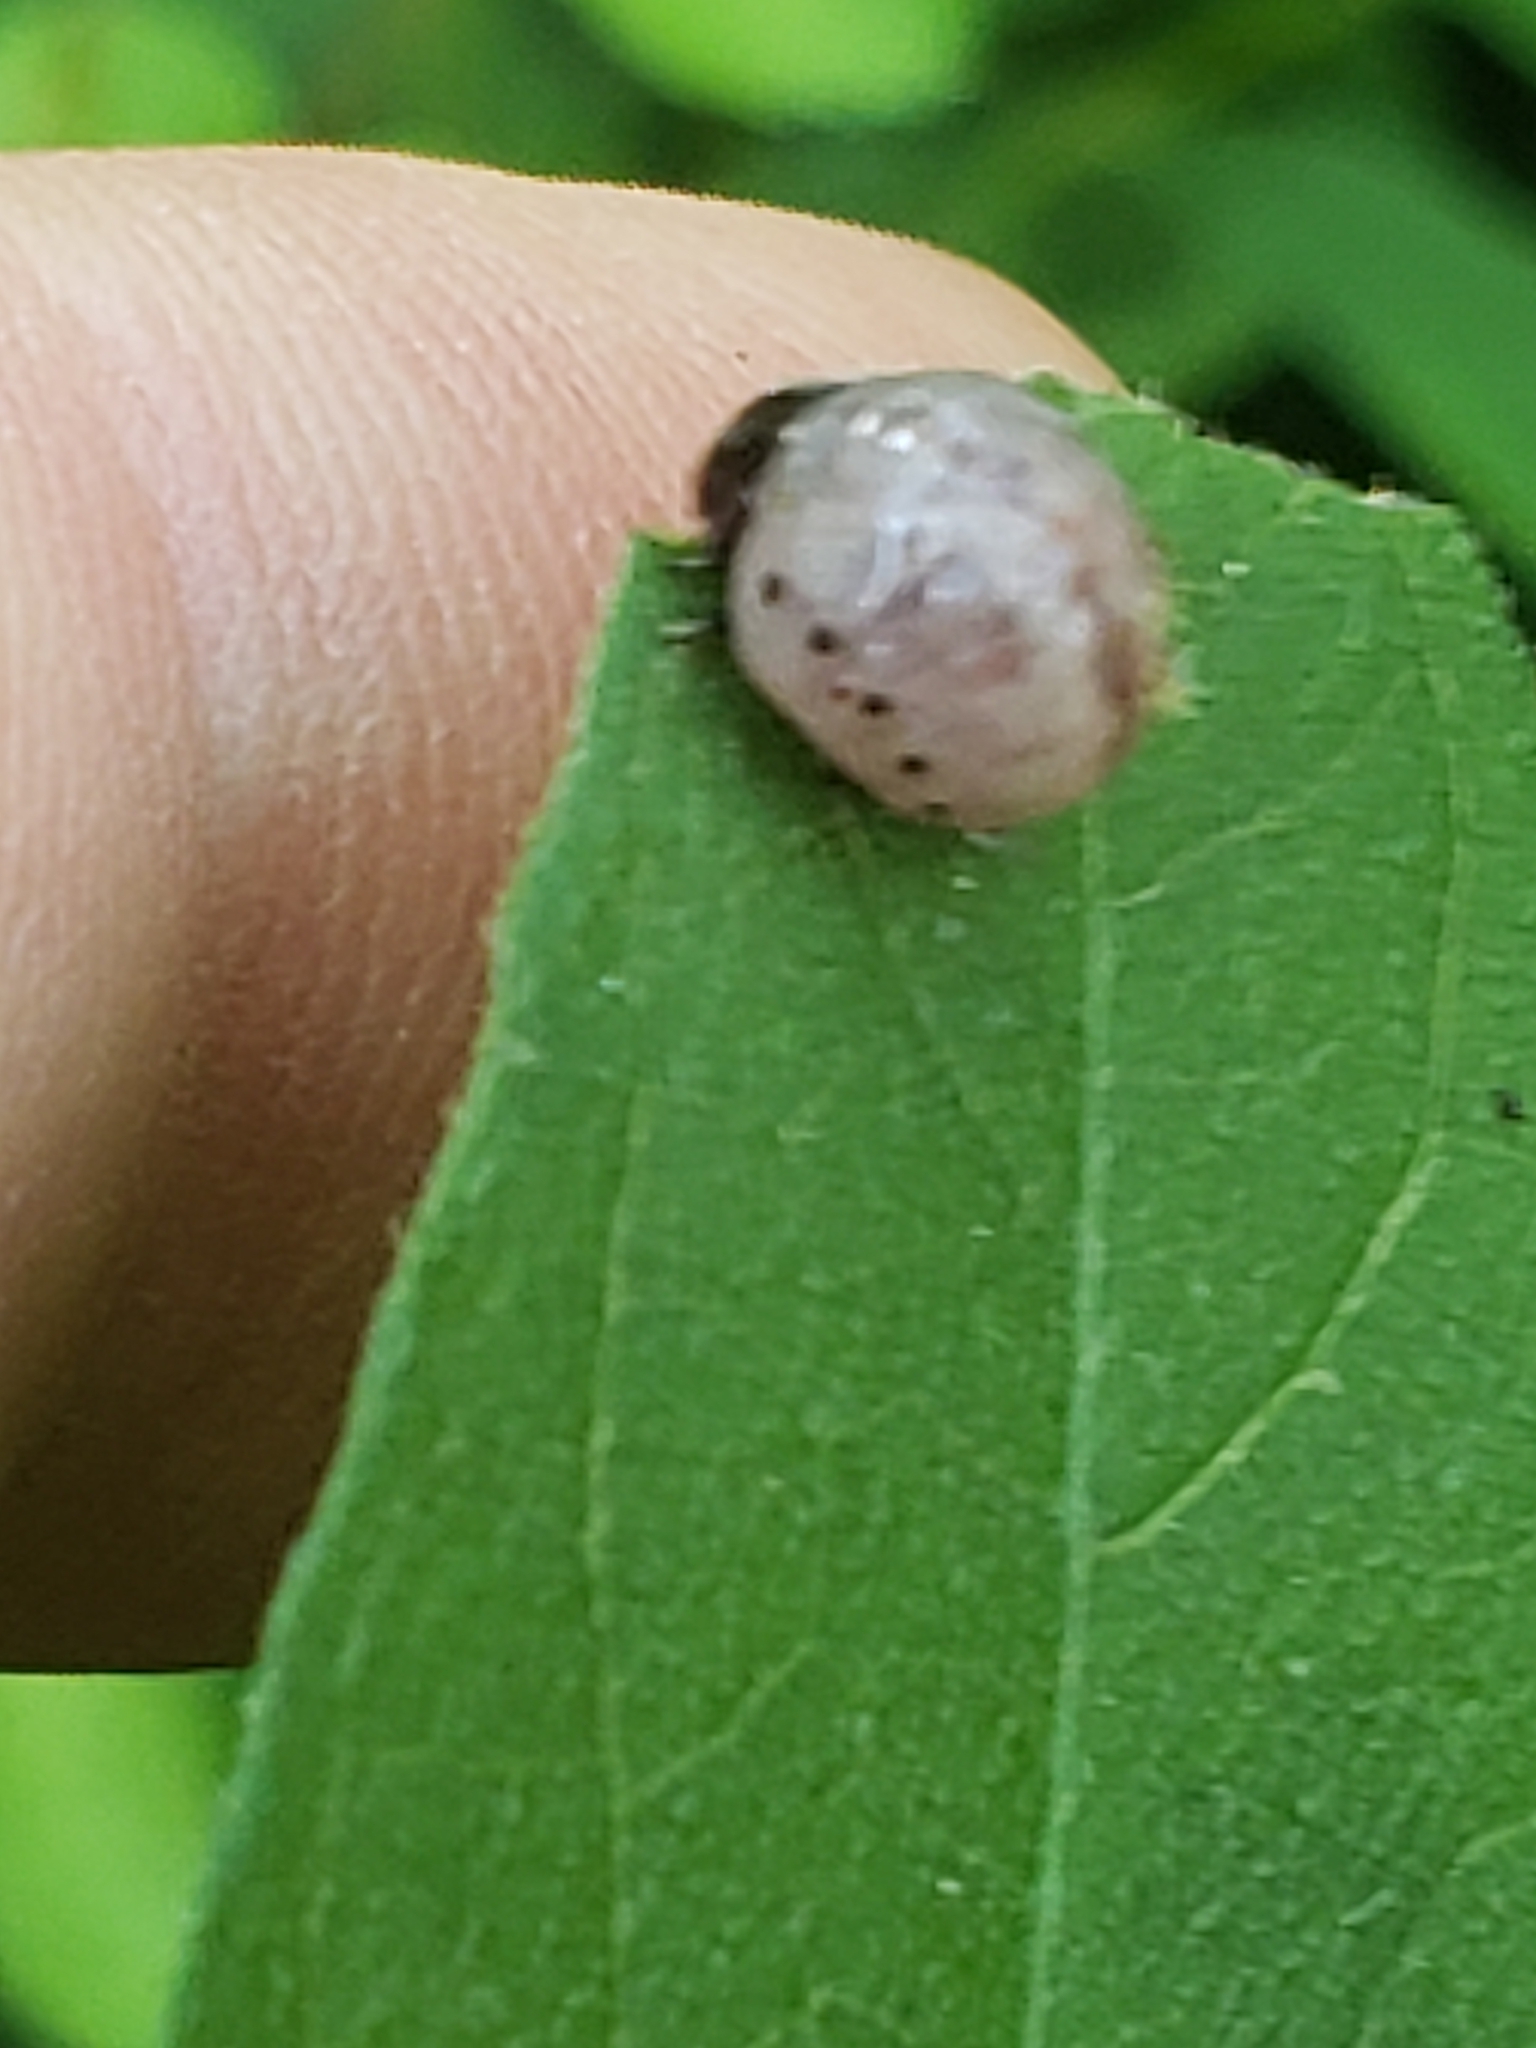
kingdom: Animalia
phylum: Arthropoda
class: Insecta
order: Coleoptera
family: Chrysomelidae
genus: Leptinotarsa
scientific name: Leptinotarsa juncta
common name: False potato beetle
